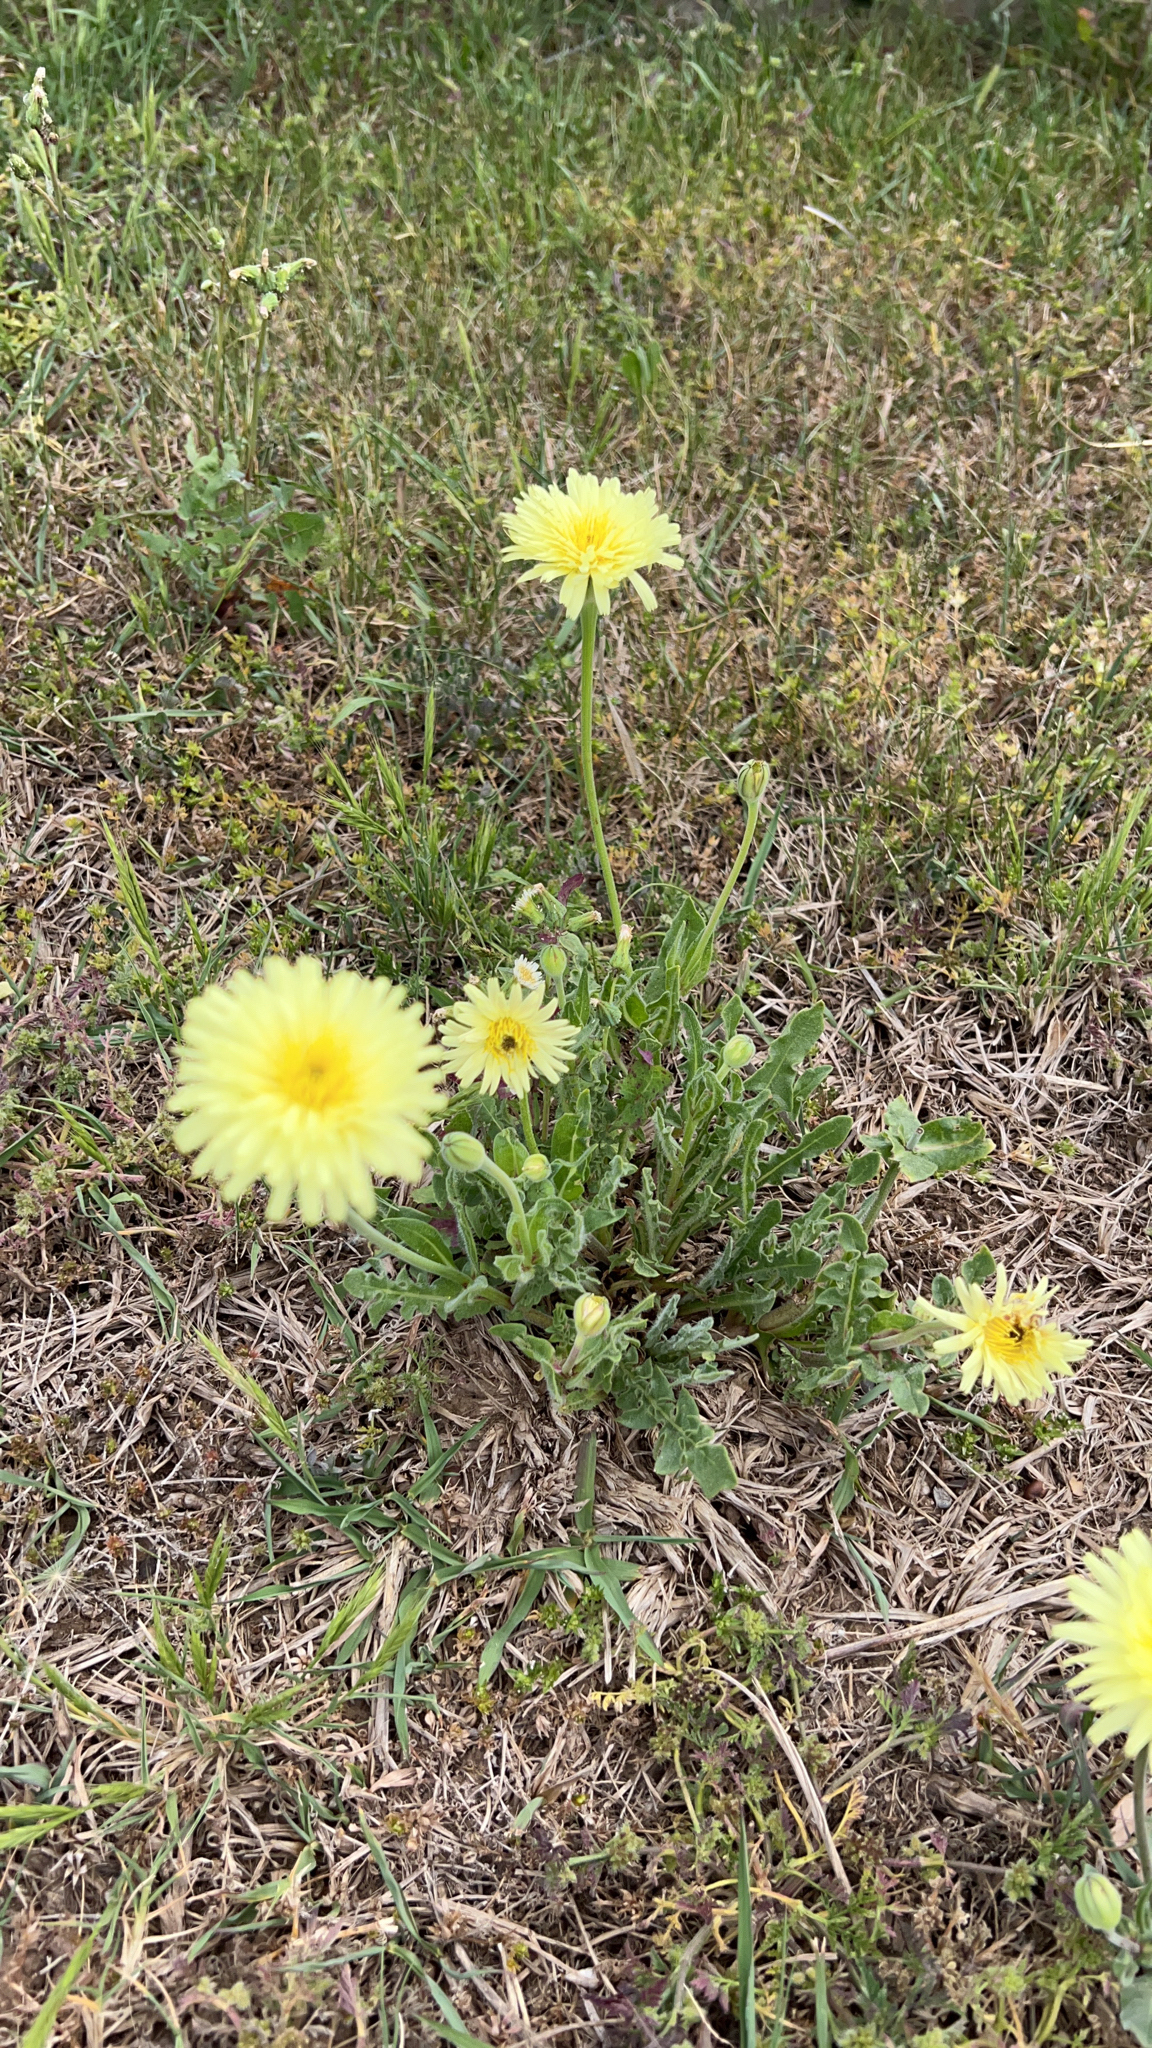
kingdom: Plantae
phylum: Tracheophyta
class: Magnoliopsida
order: Asterales
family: Asteraceae
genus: Urospermum
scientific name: Urospermum dalechampii
